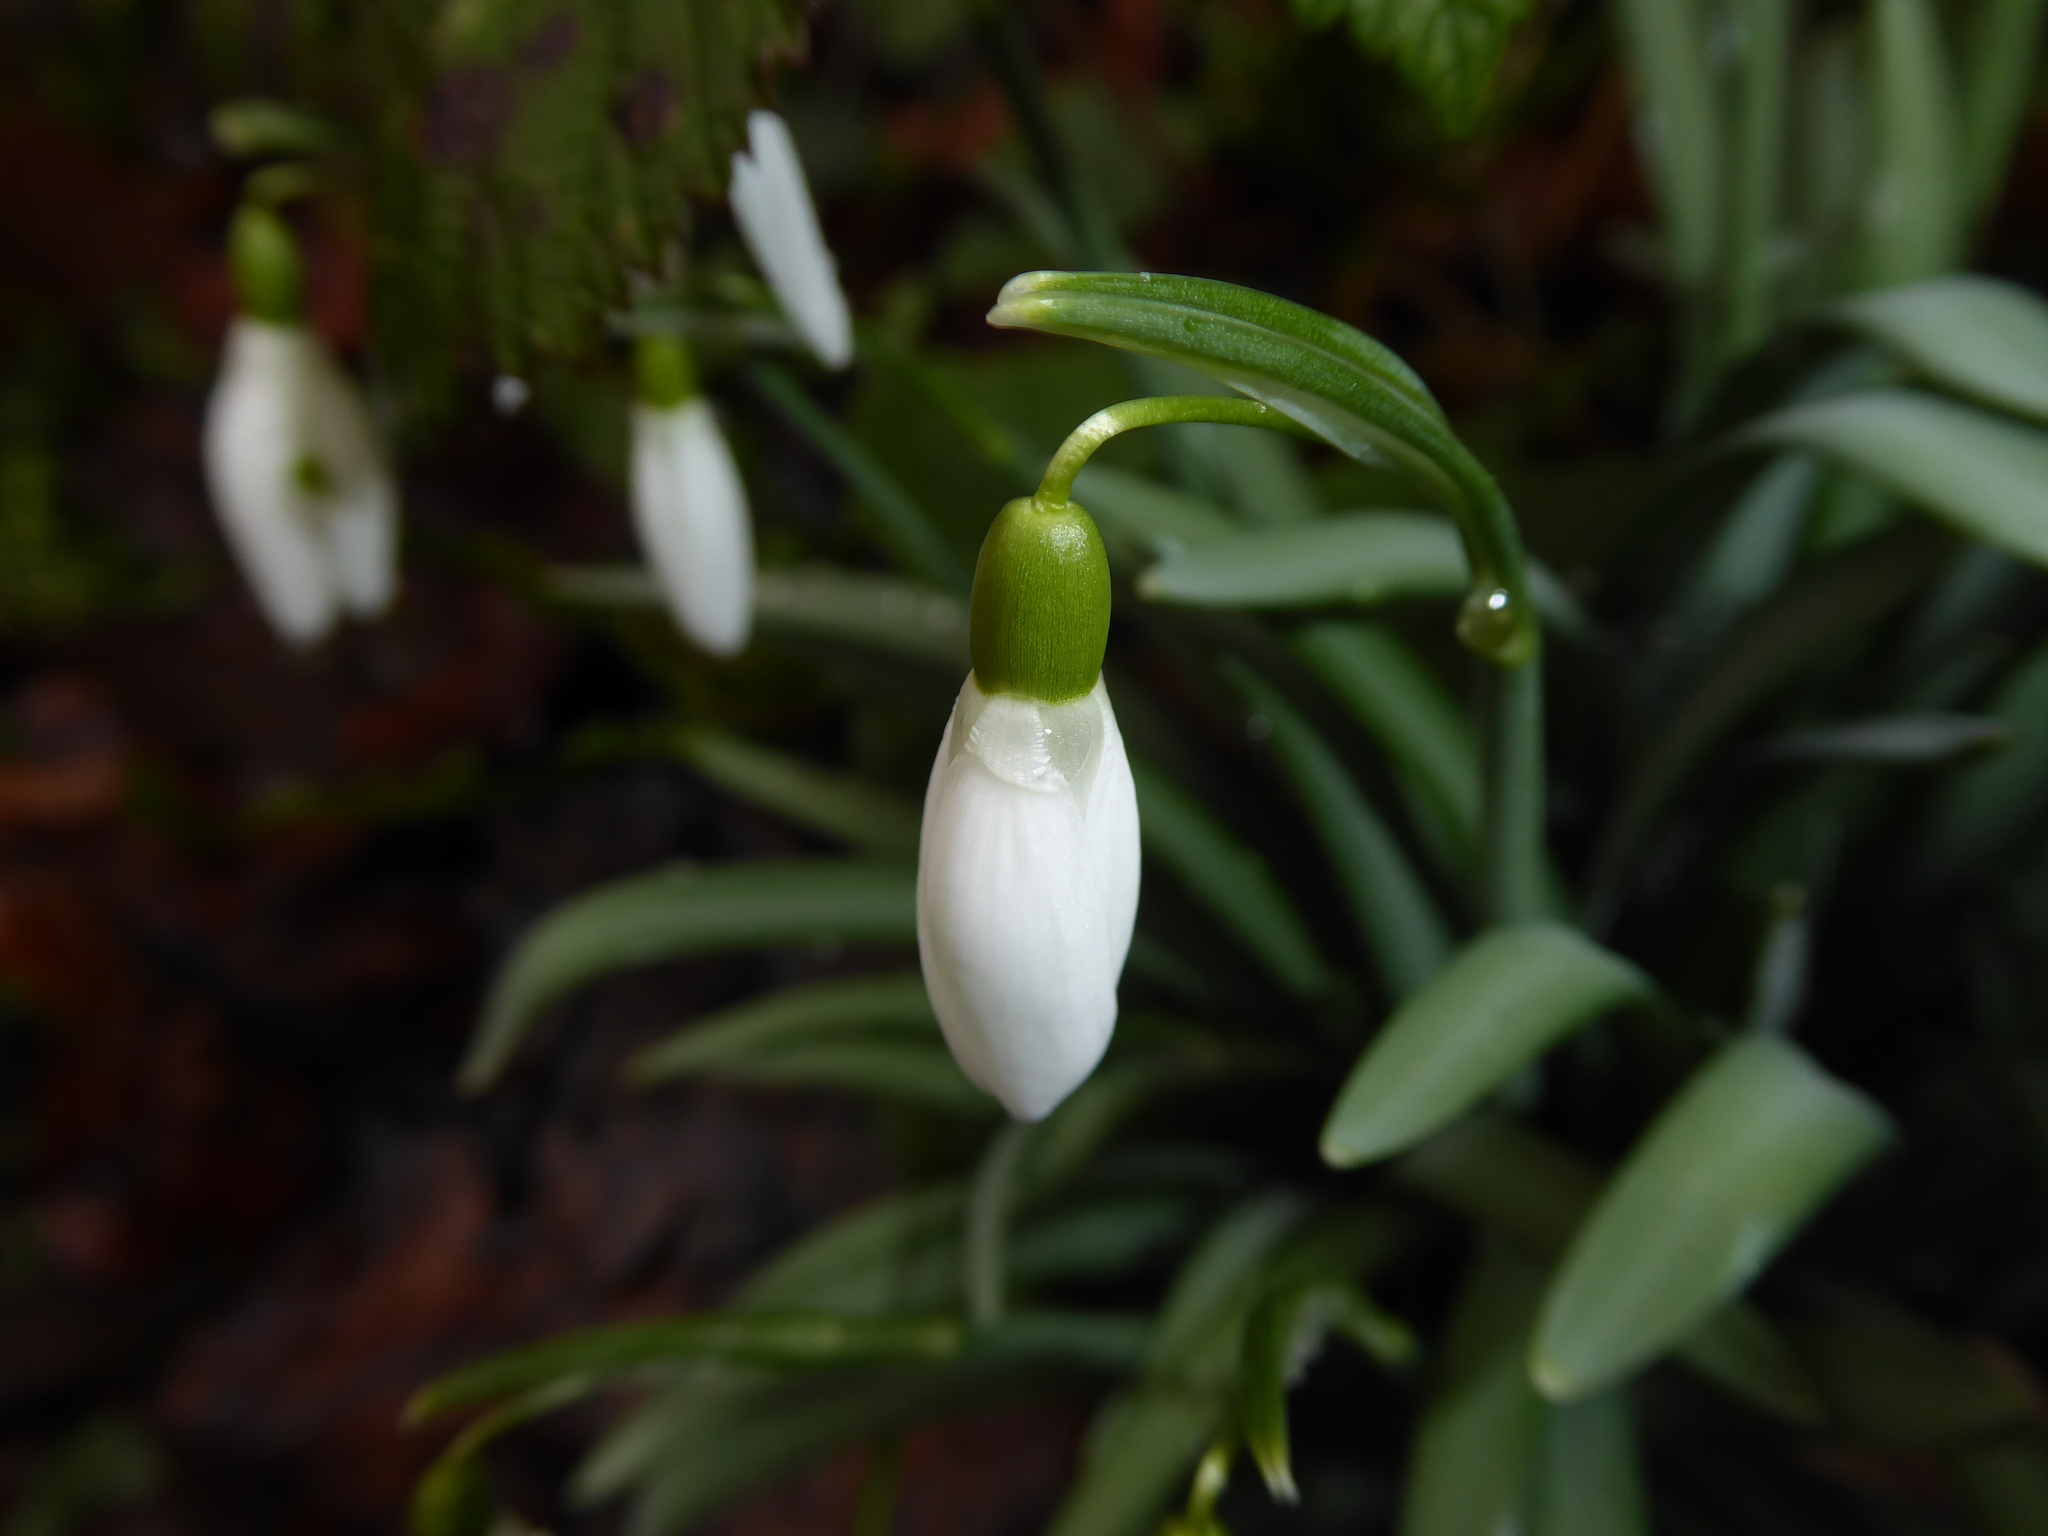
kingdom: Plantae
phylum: Tracheophyta
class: Liliopsida
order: Asparagales
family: Amaryllidaceae
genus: Galanthus
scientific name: Galanthus nivalis
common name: Snowdrop
